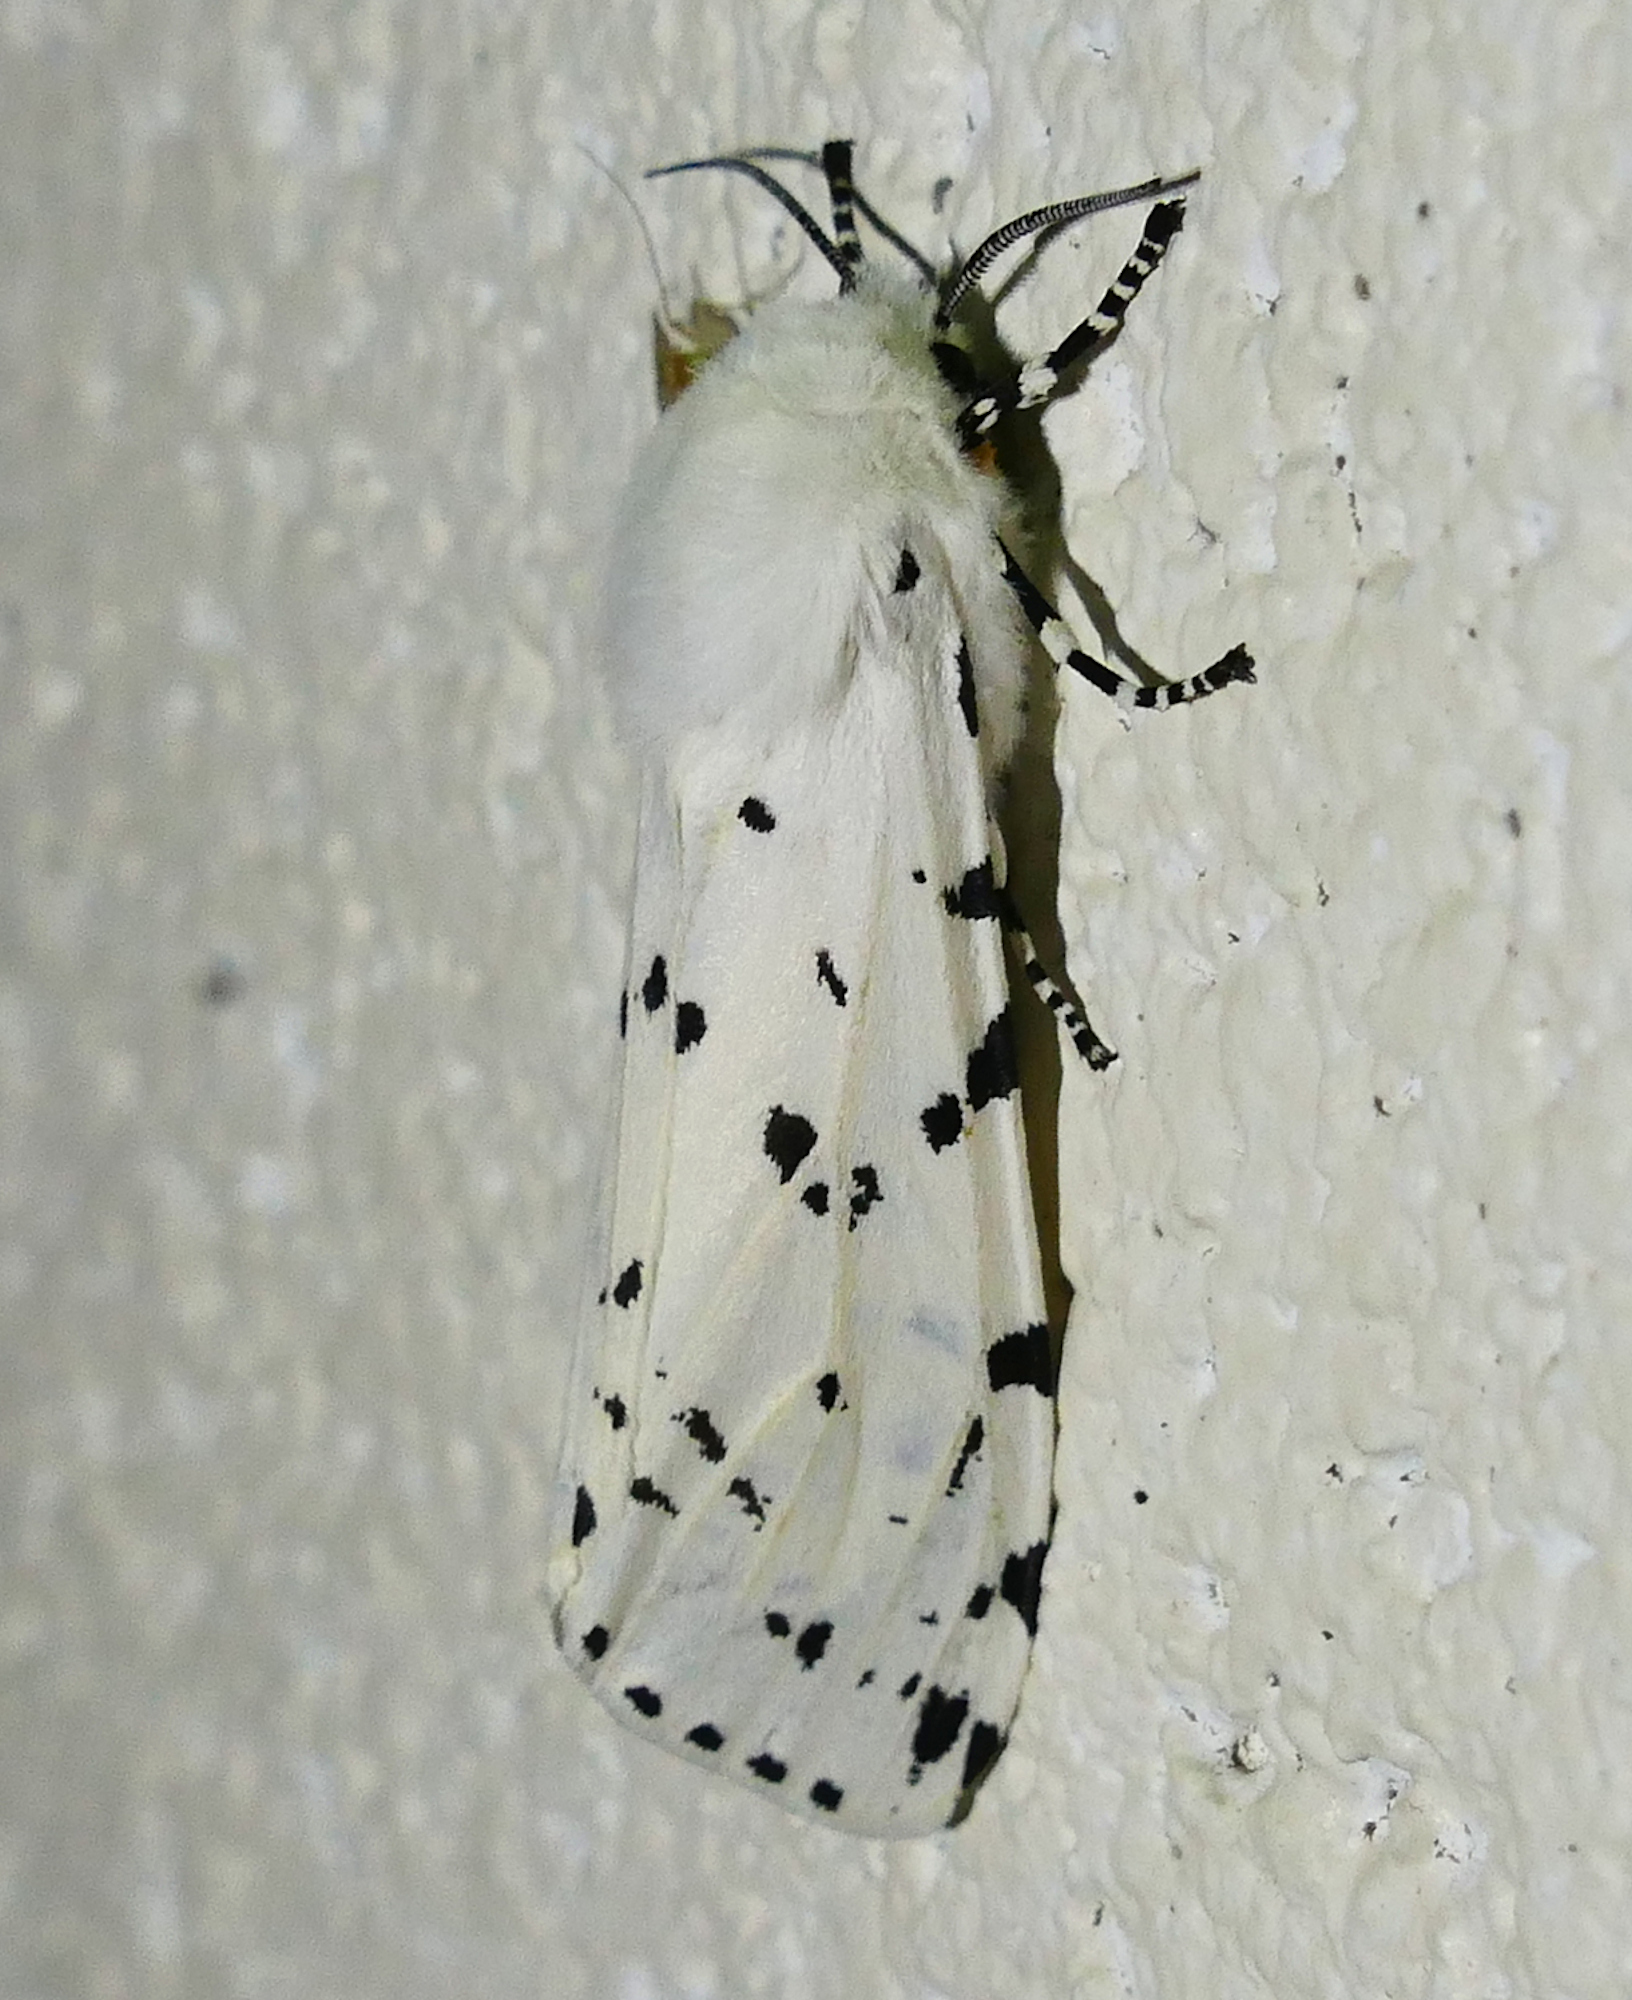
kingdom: Animalia
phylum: Arthropoda
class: Insecta
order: Lepidoptera
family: Erebidae
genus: Estigmene
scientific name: Estigmene acrea
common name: Salt marsh moth
